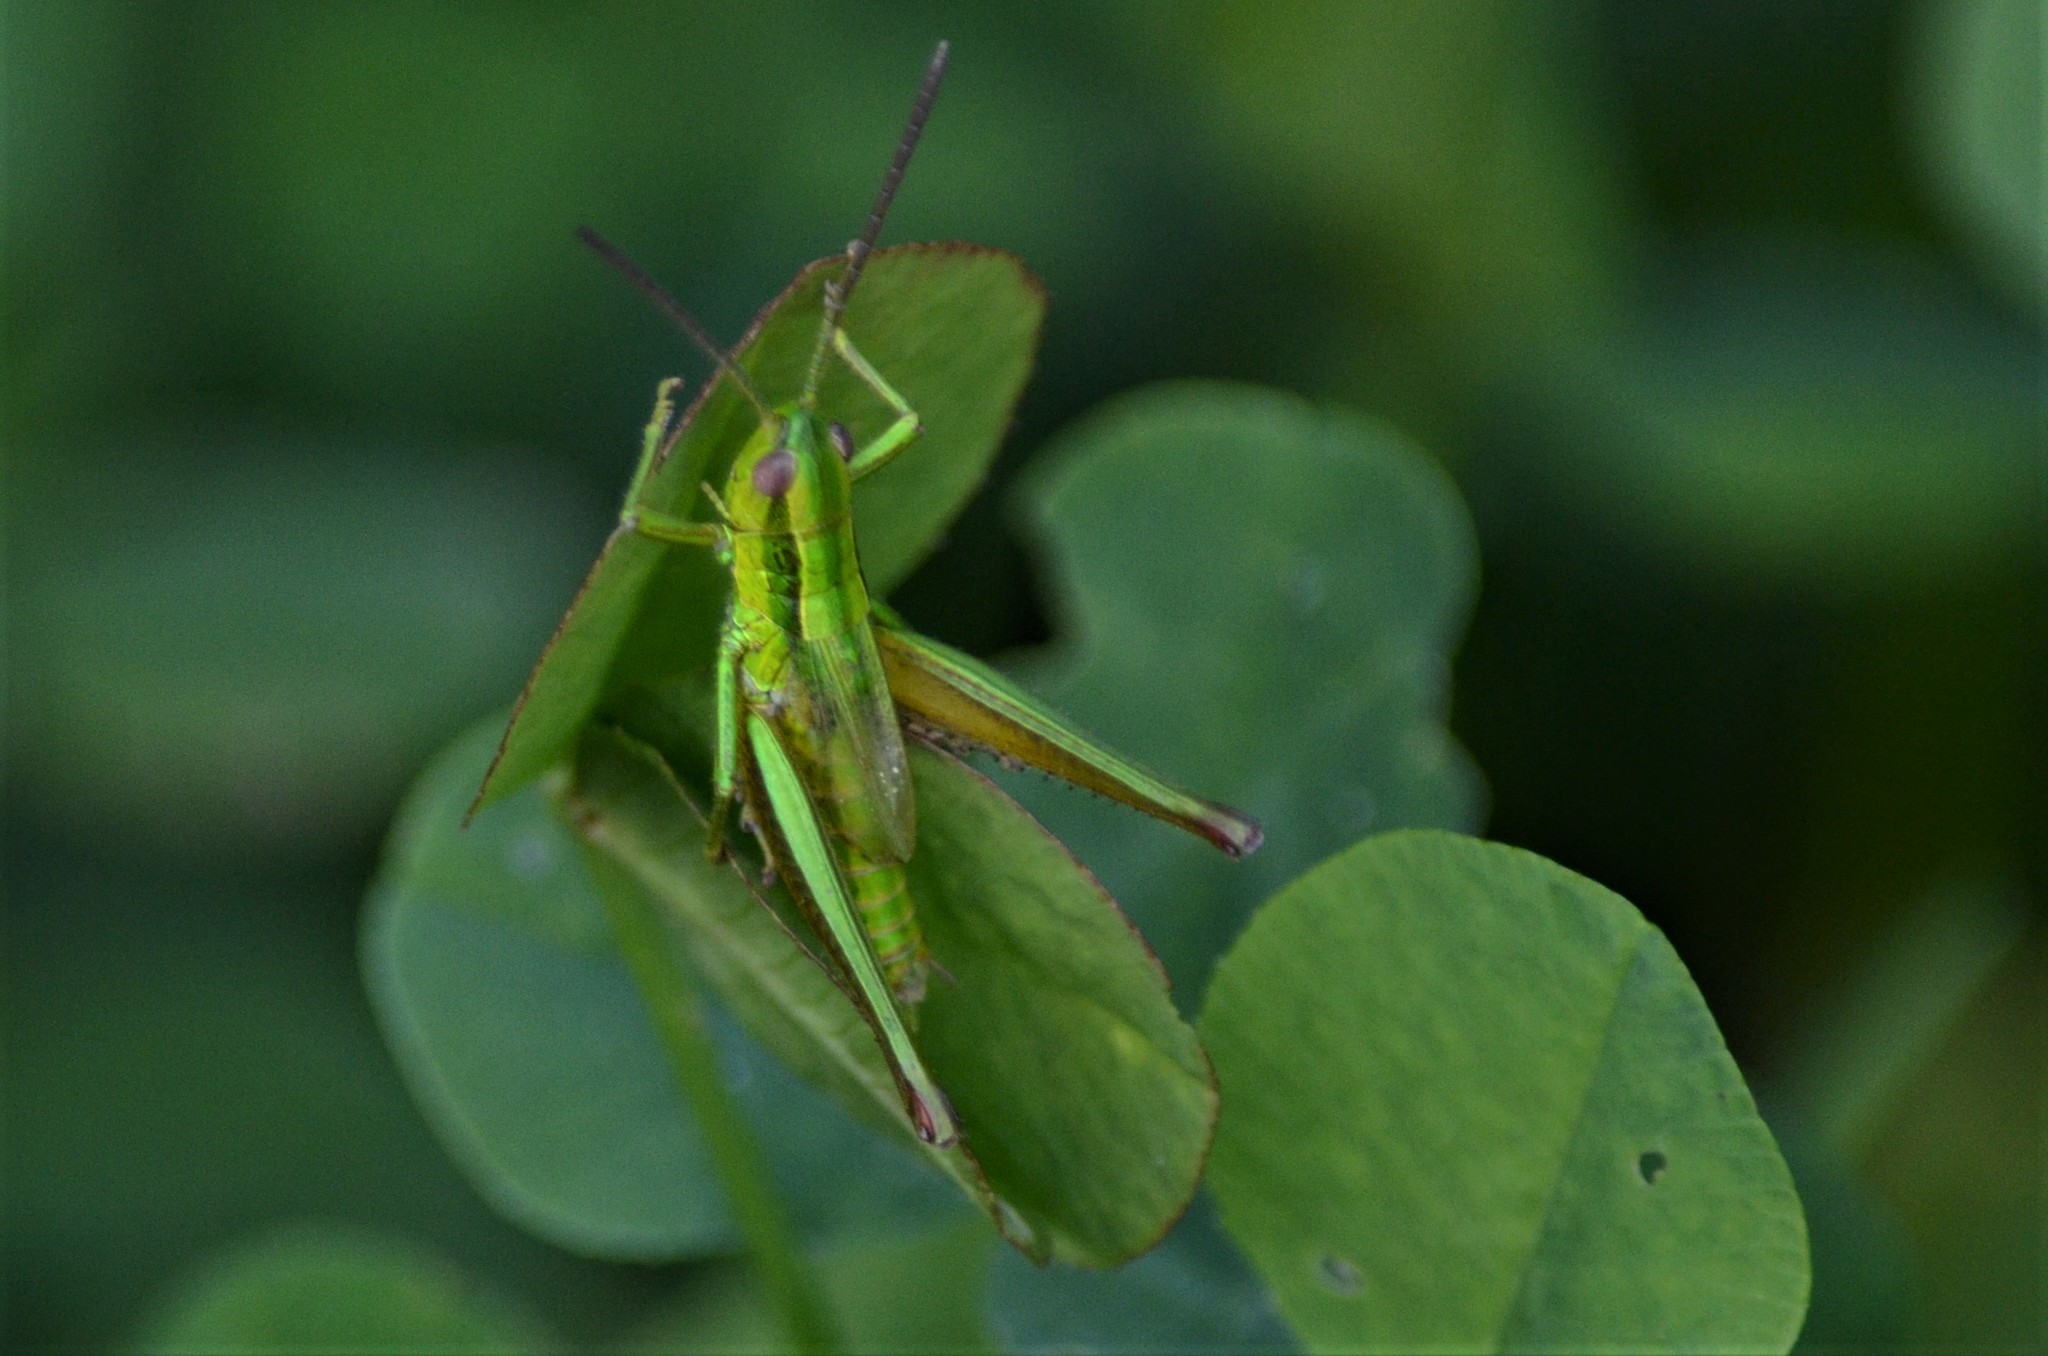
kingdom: Animalia
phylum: Arthropoda
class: Insecta
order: Orthoptera
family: Acrididae
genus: Euthystira
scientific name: Euthystira brachyptera
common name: Small gold grasshopper
